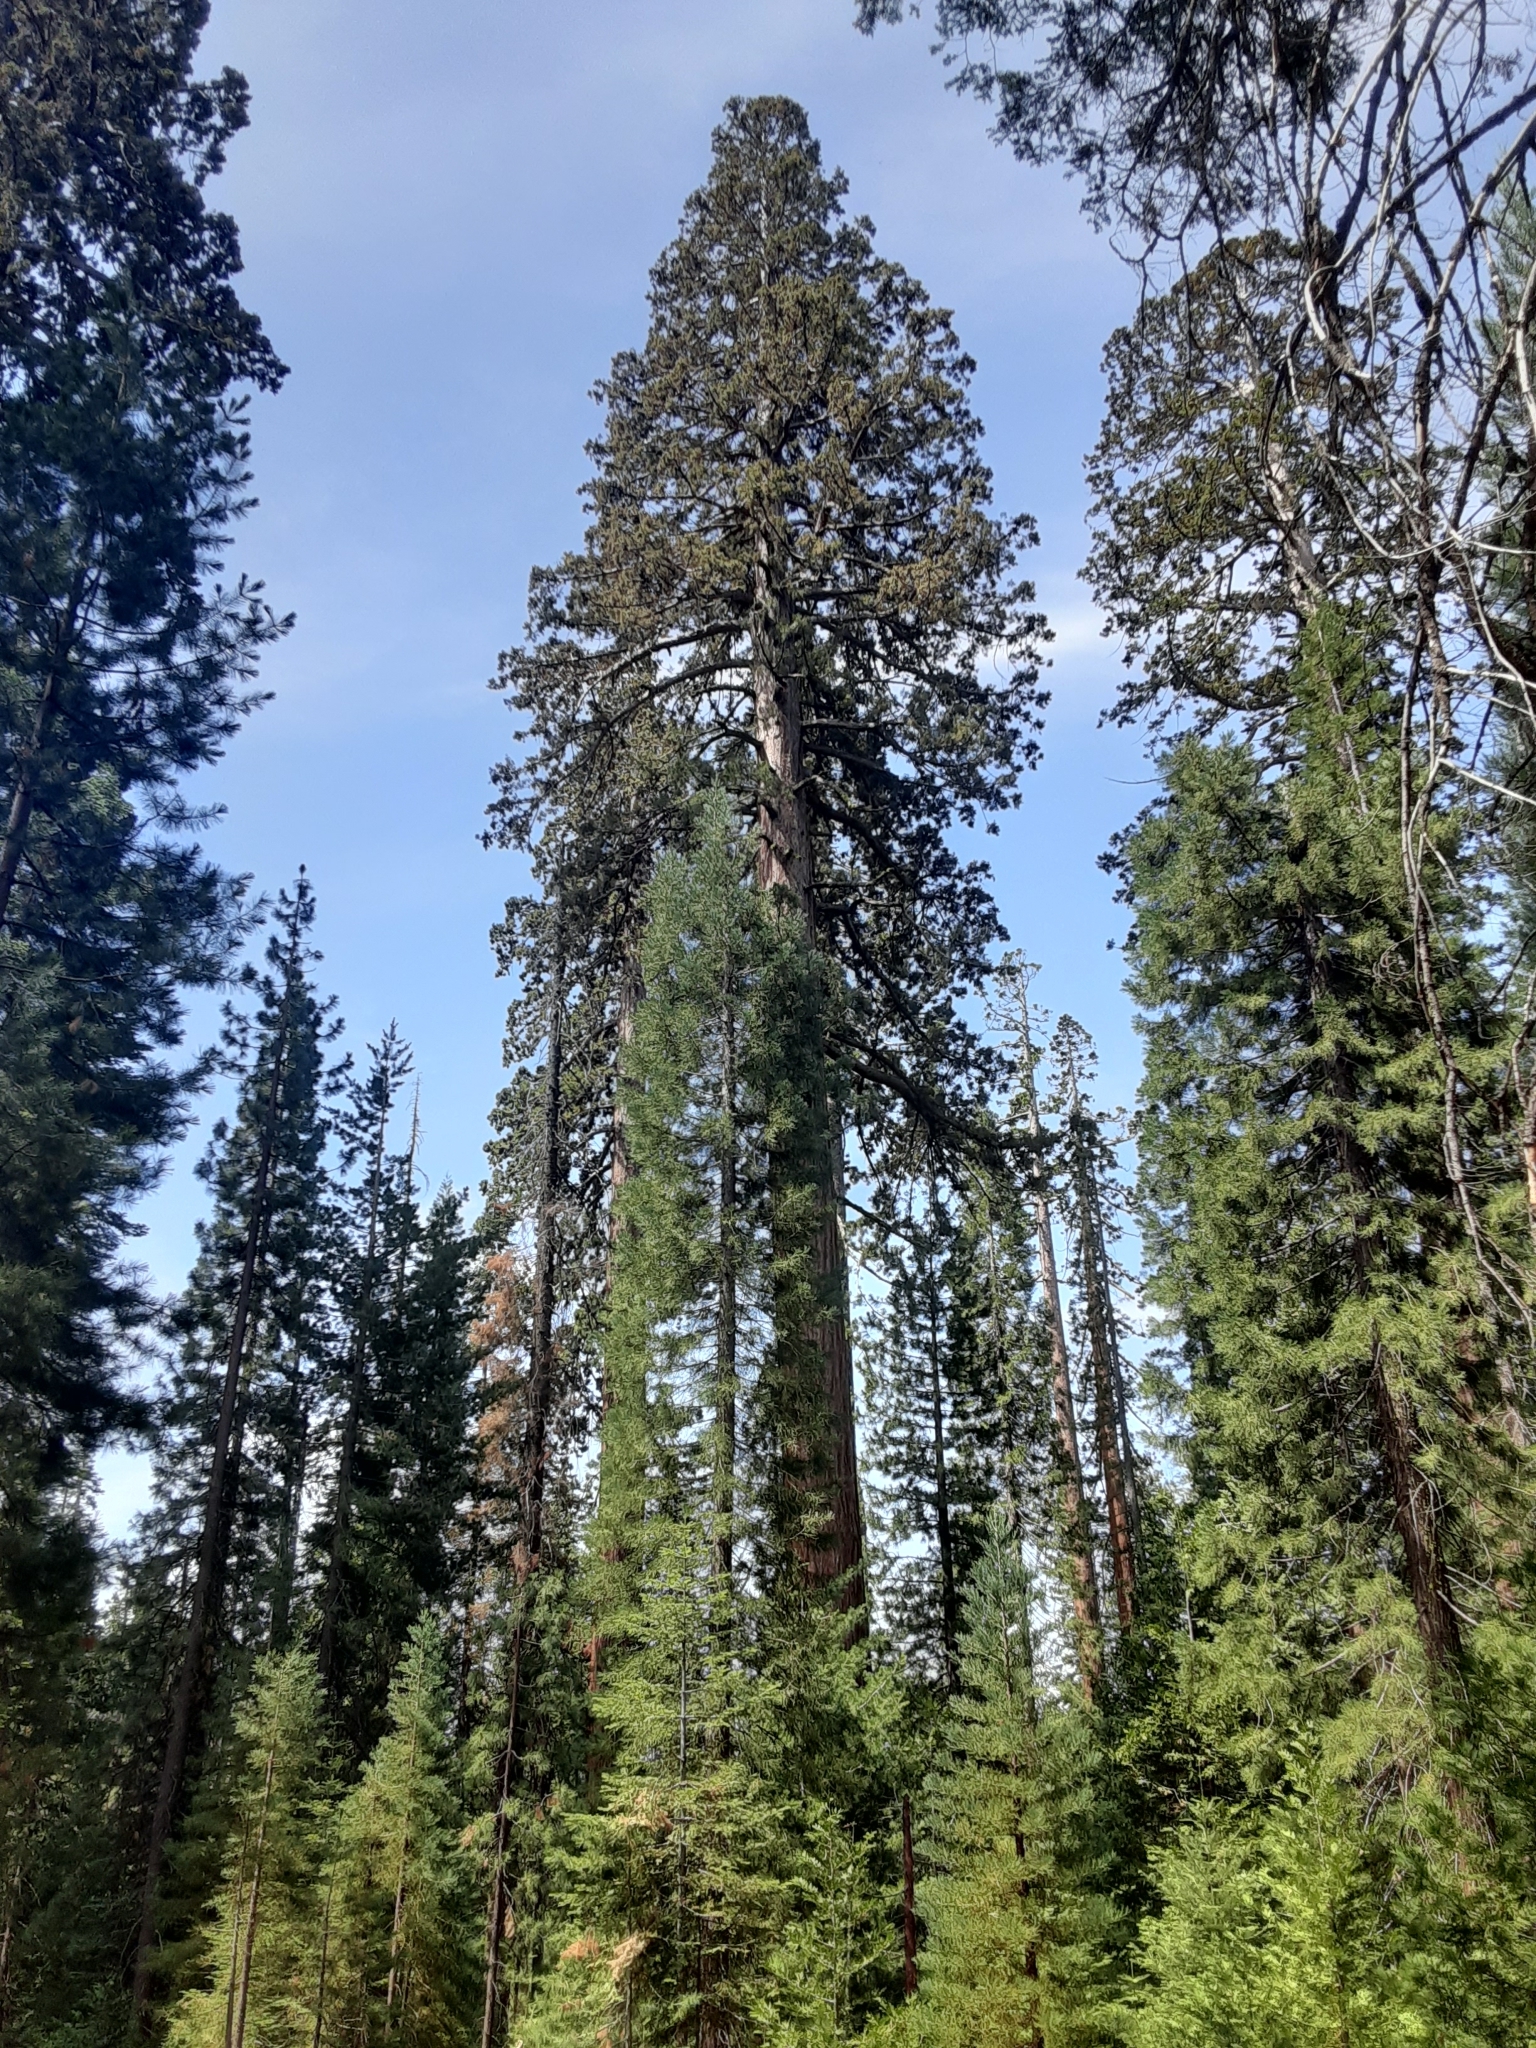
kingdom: Plantae
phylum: Tracheophyta
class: Pinopsida
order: Pinales
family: Cupressaceae
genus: Sequoiadendron
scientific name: Sequoiadendron giganteum
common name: Wellingtonia
